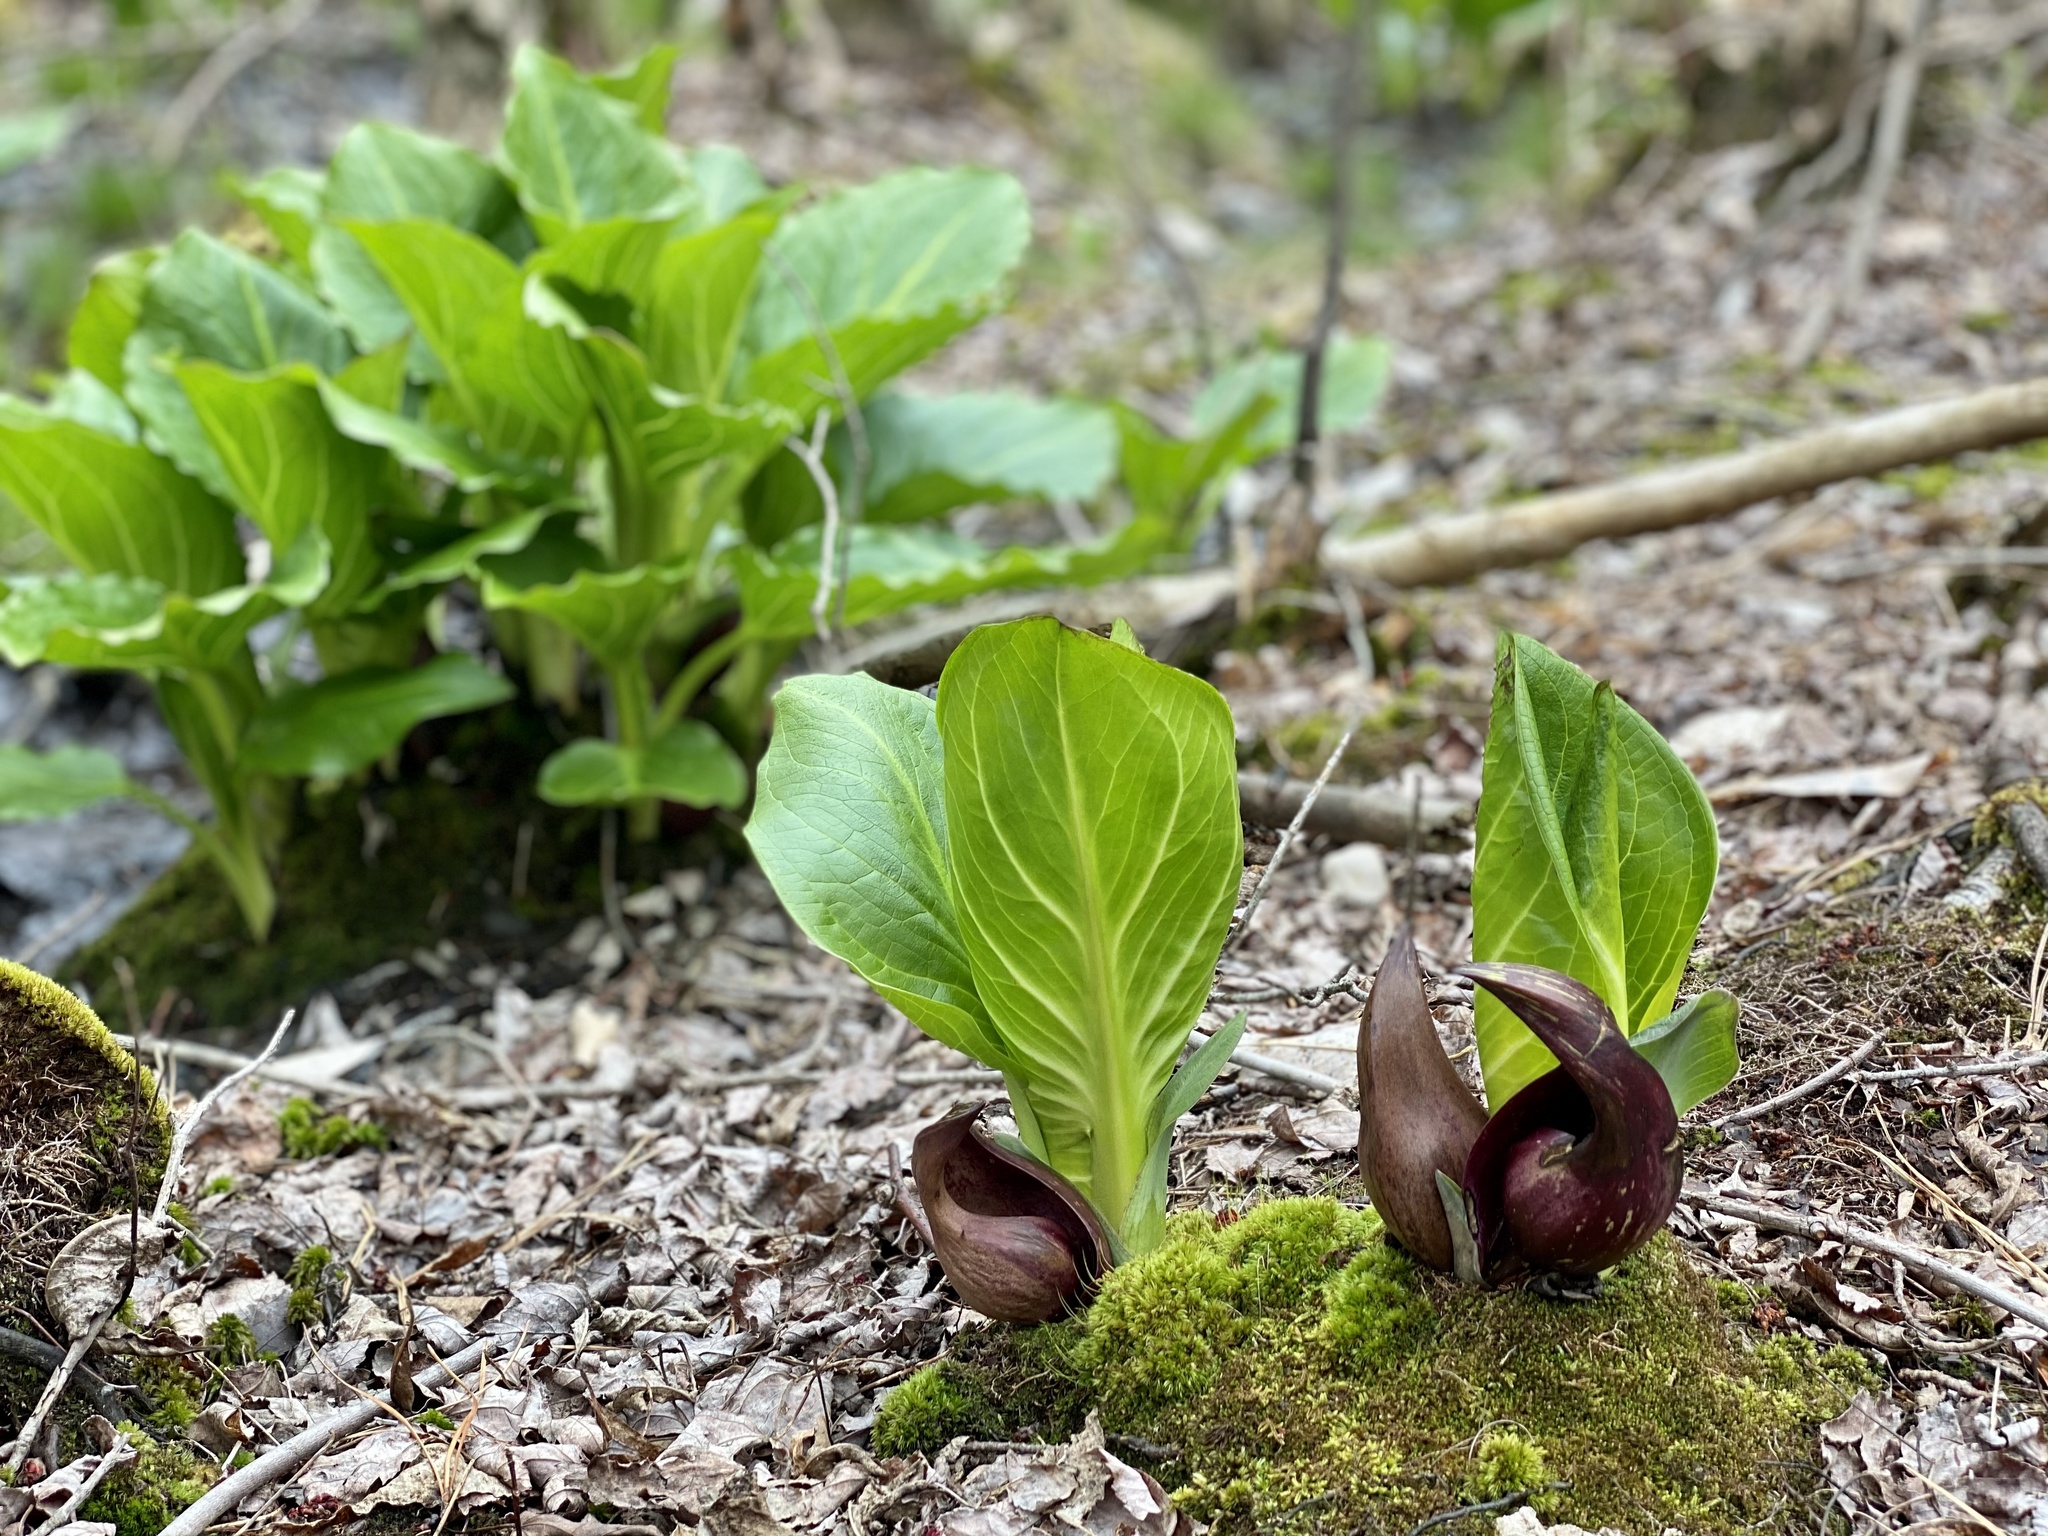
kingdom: Plantae
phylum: Tracheophyta
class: Liliopsida
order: Alismatales
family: Araceae
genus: Symplocarpus
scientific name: Symplocarpus foetidus
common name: Eastern skunk cabbage
